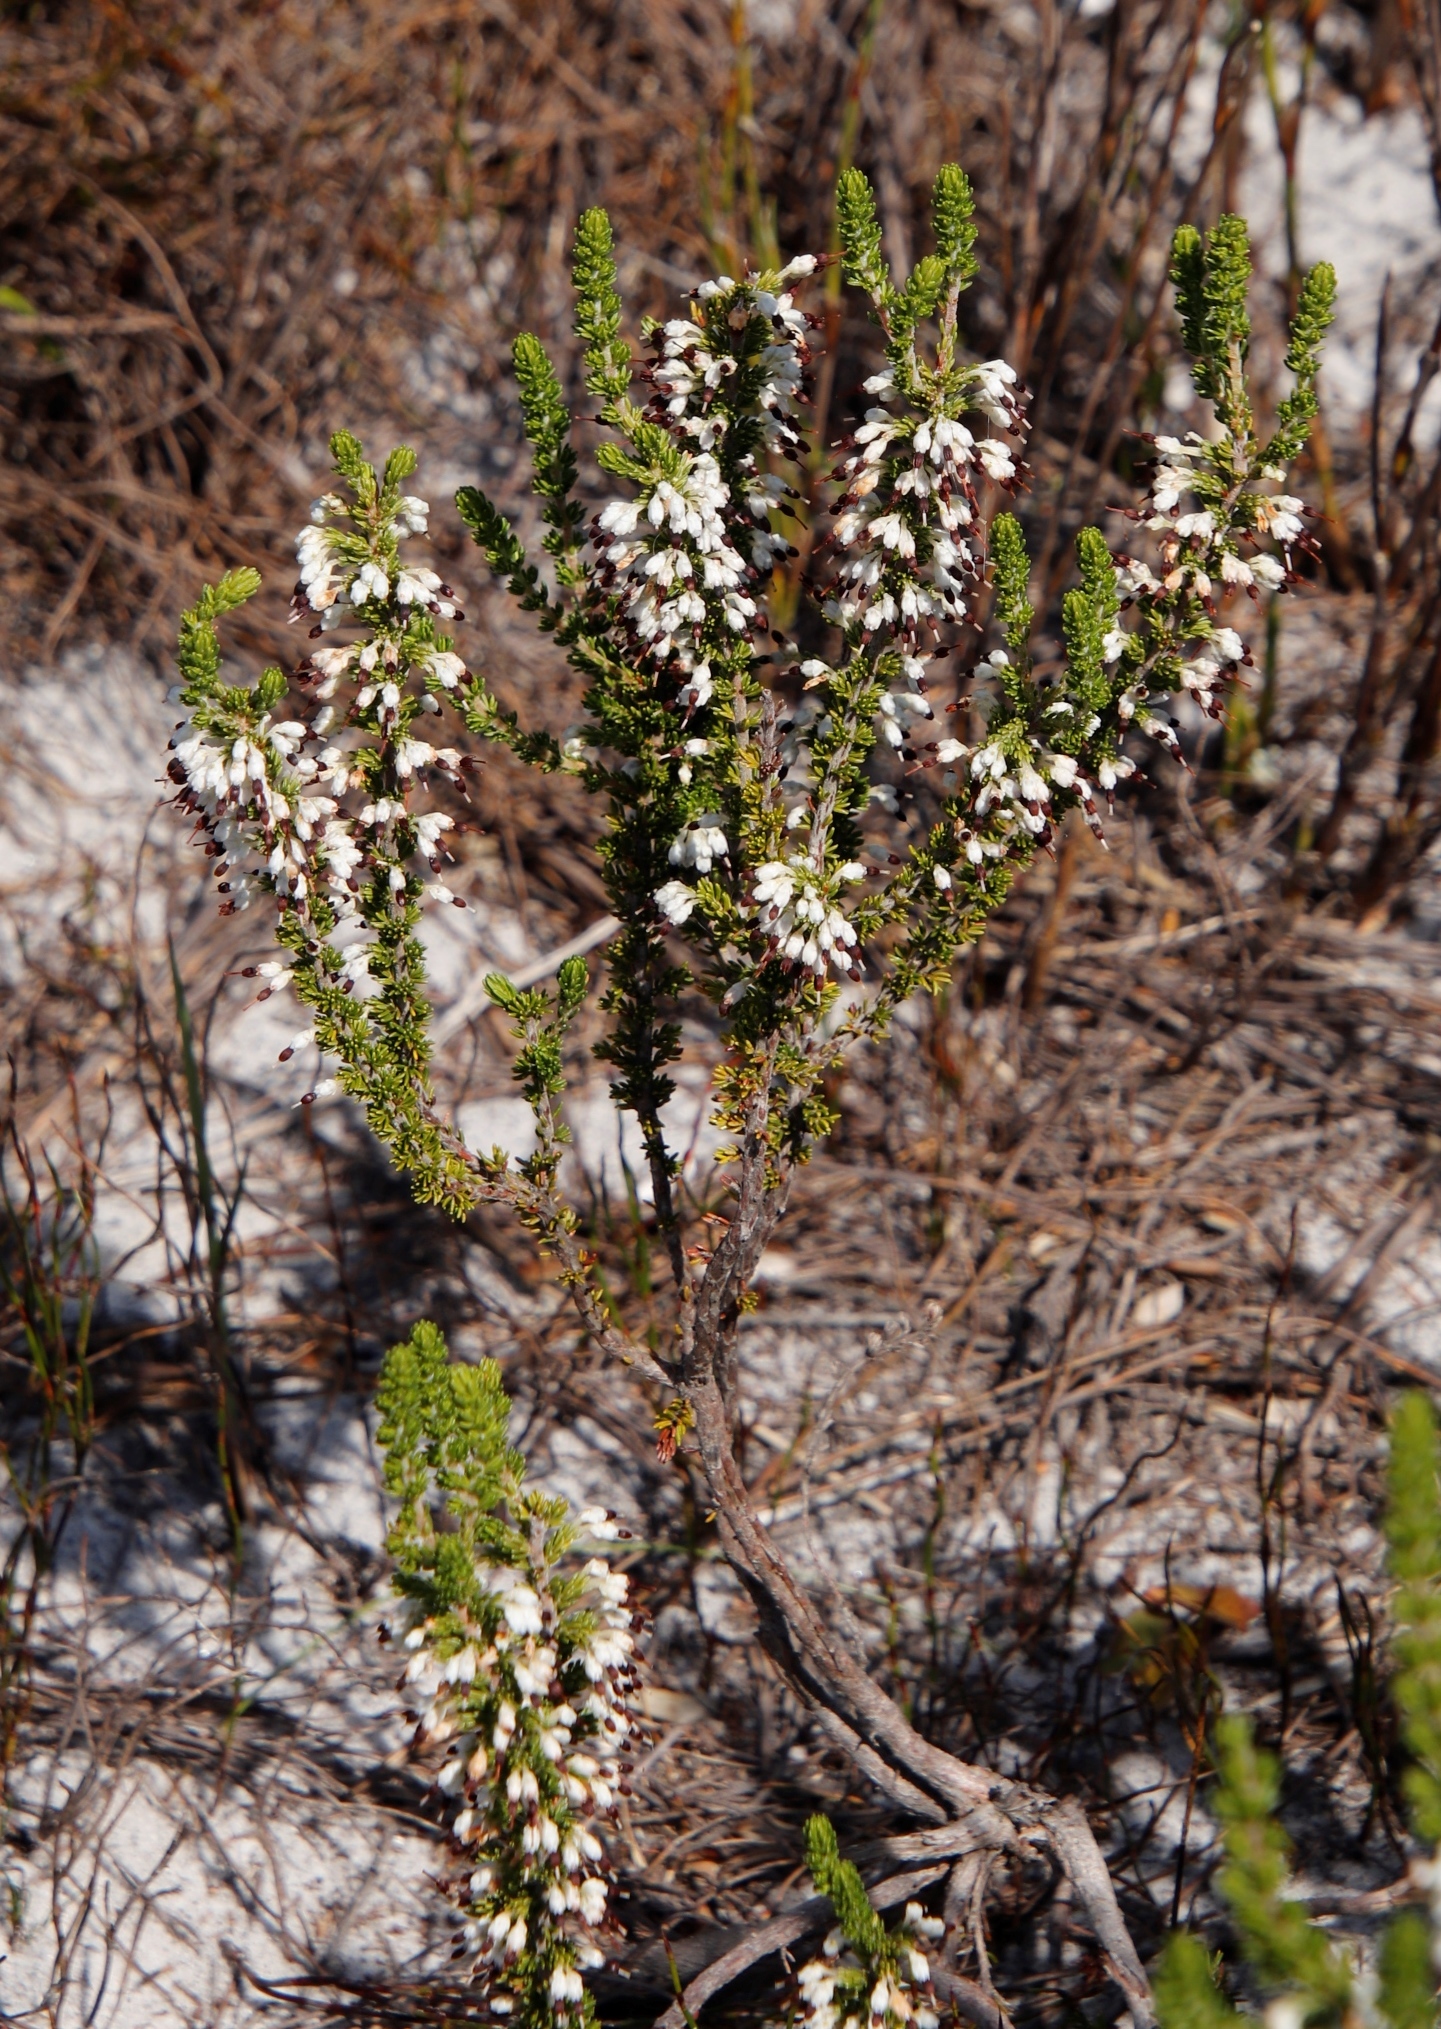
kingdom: Plantae
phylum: Tracheophyta
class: Magnoliopsida
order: Ericales
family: Ericaceae
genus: Erica
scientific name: Erica imbricata
